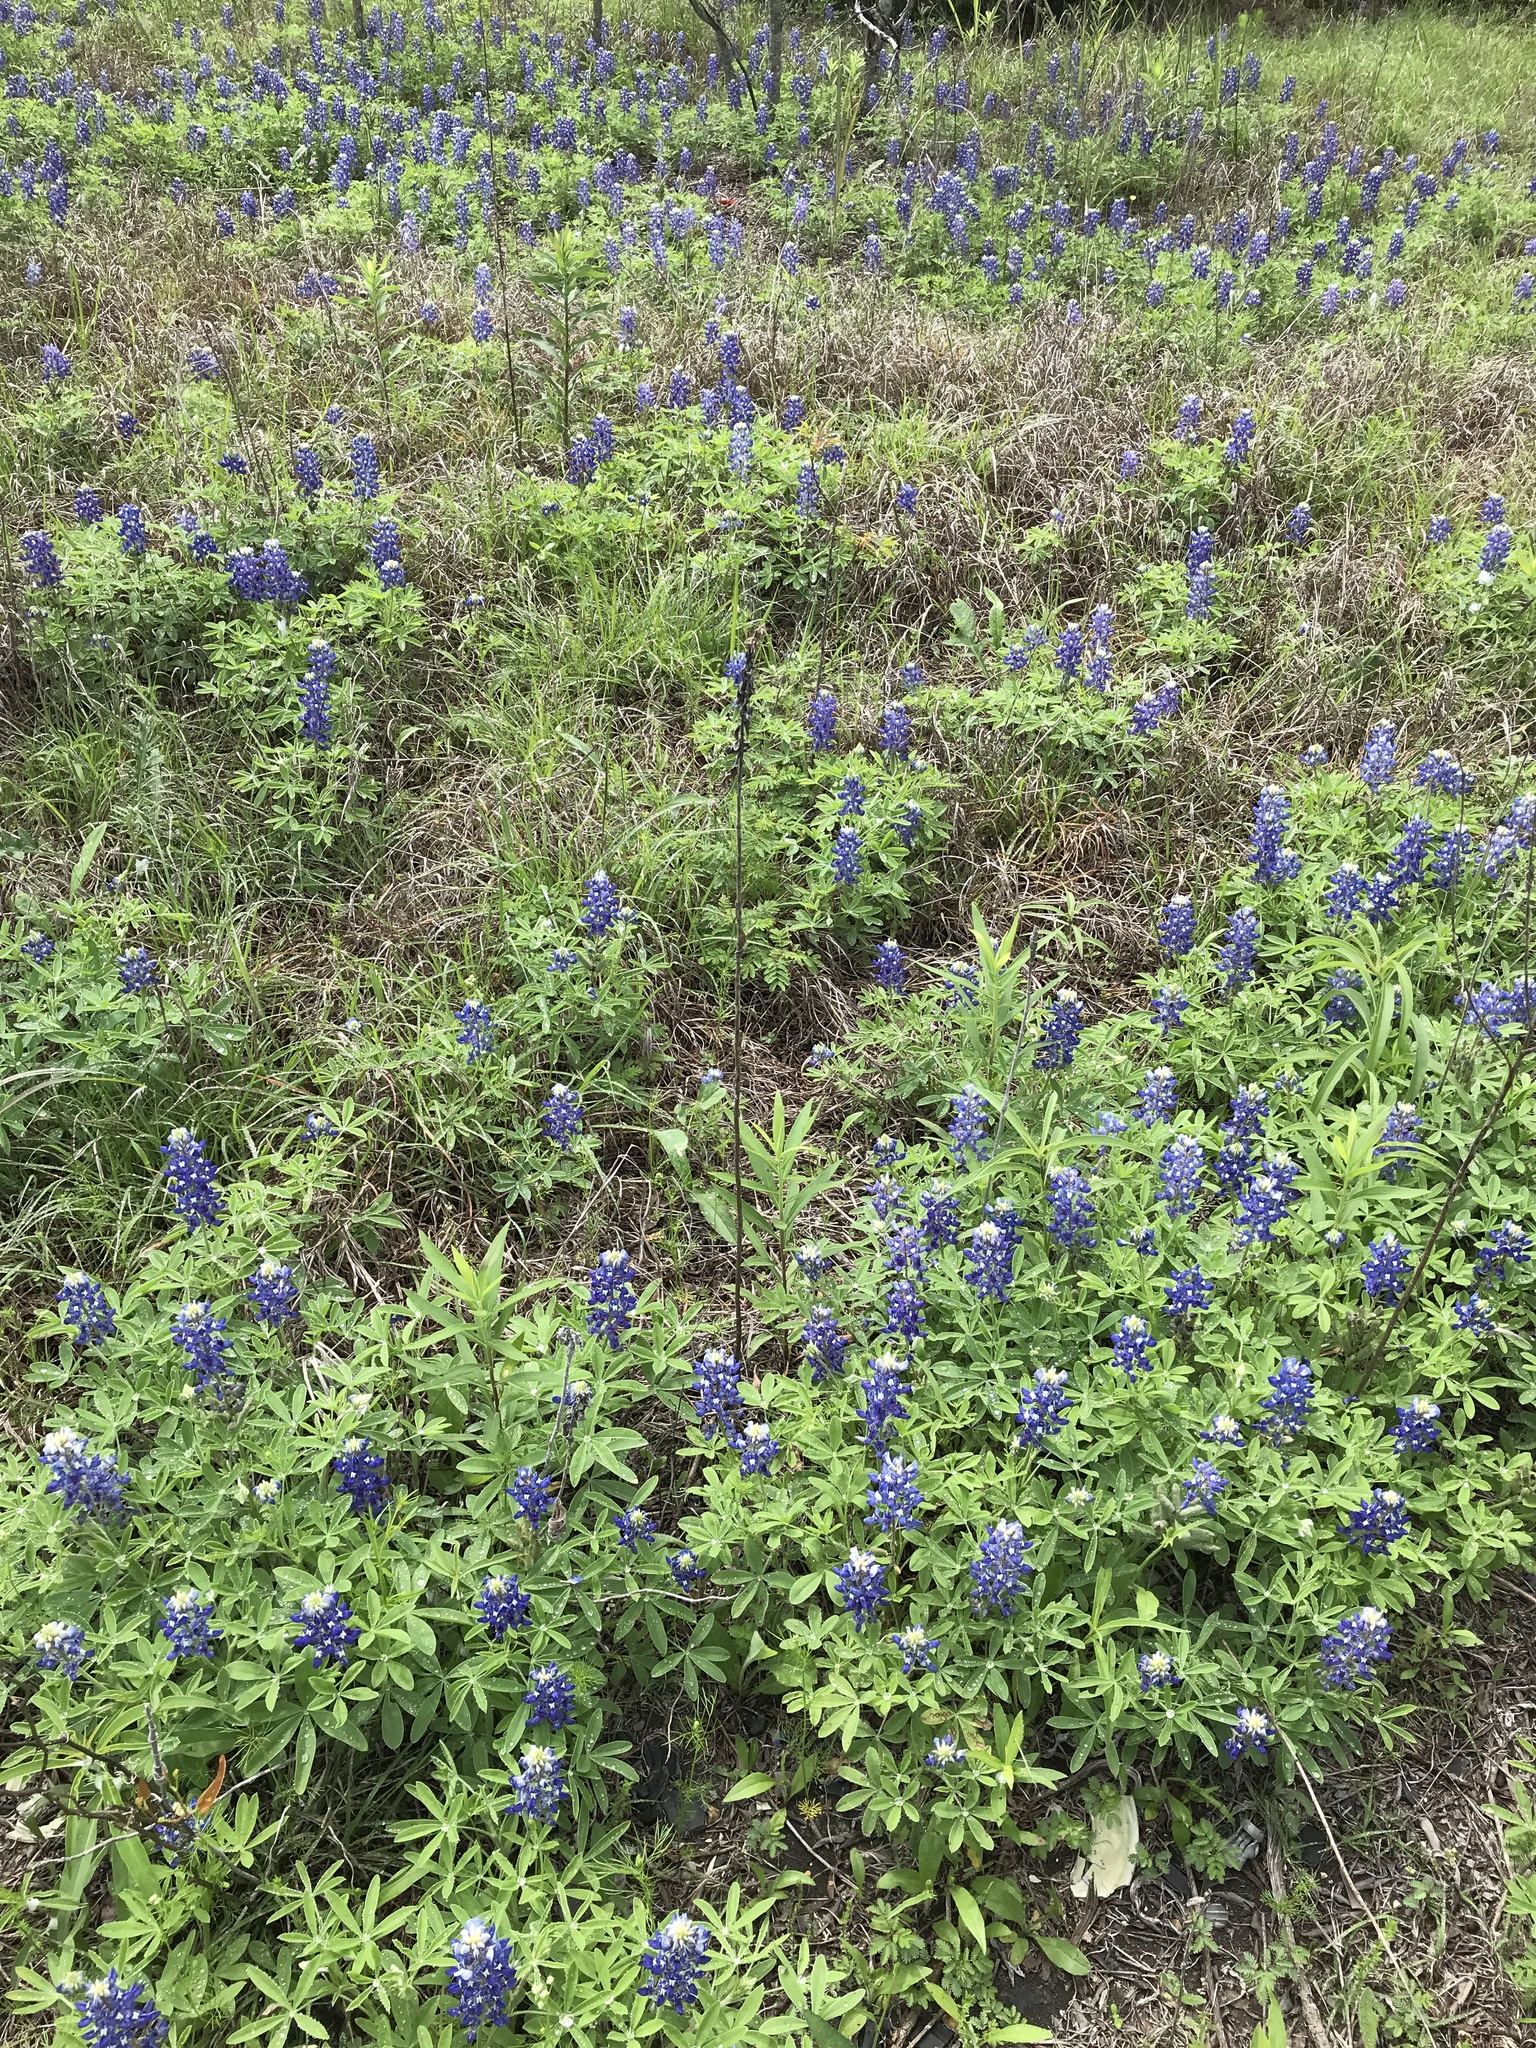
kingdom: Plantae
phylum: Tracheophyta
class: Magnoliopsida
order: Fabales
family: Fabaceae
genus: Lupinus
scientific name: Lupinus texensis
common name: Texas bluebonnet
